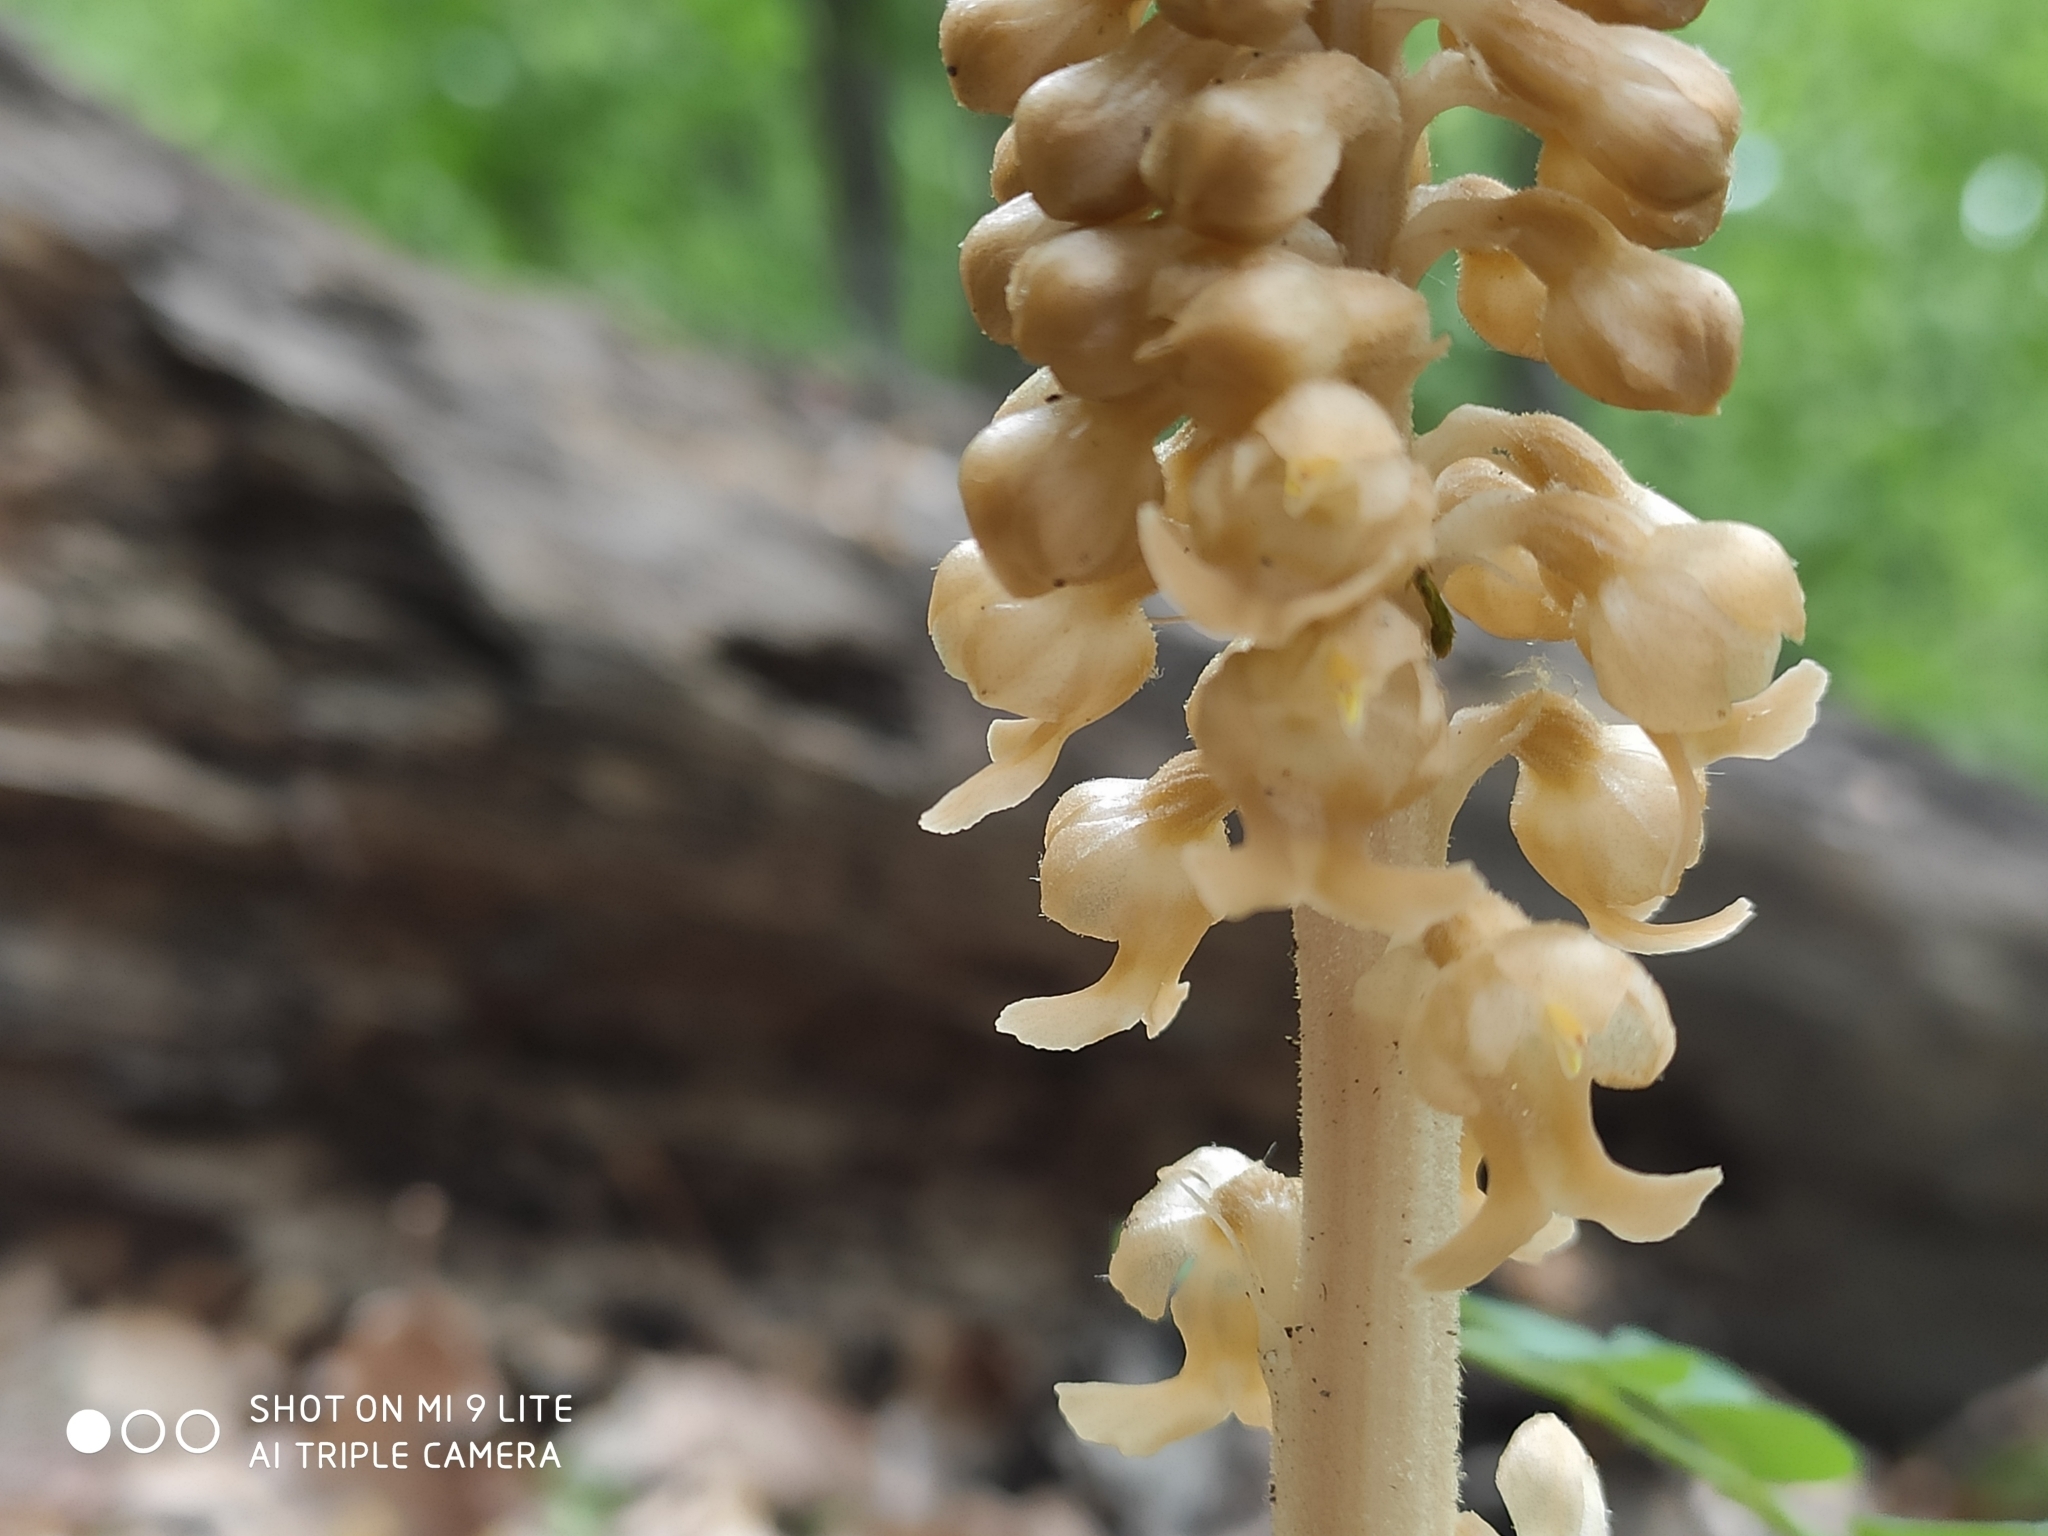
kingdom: Plantae
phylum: Tracheophyta
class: Liliopsida
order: Asparagales
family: Orchidaceae
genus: Neottia
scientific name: Neottia nidus-avis
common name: Bird's-nest orchid
